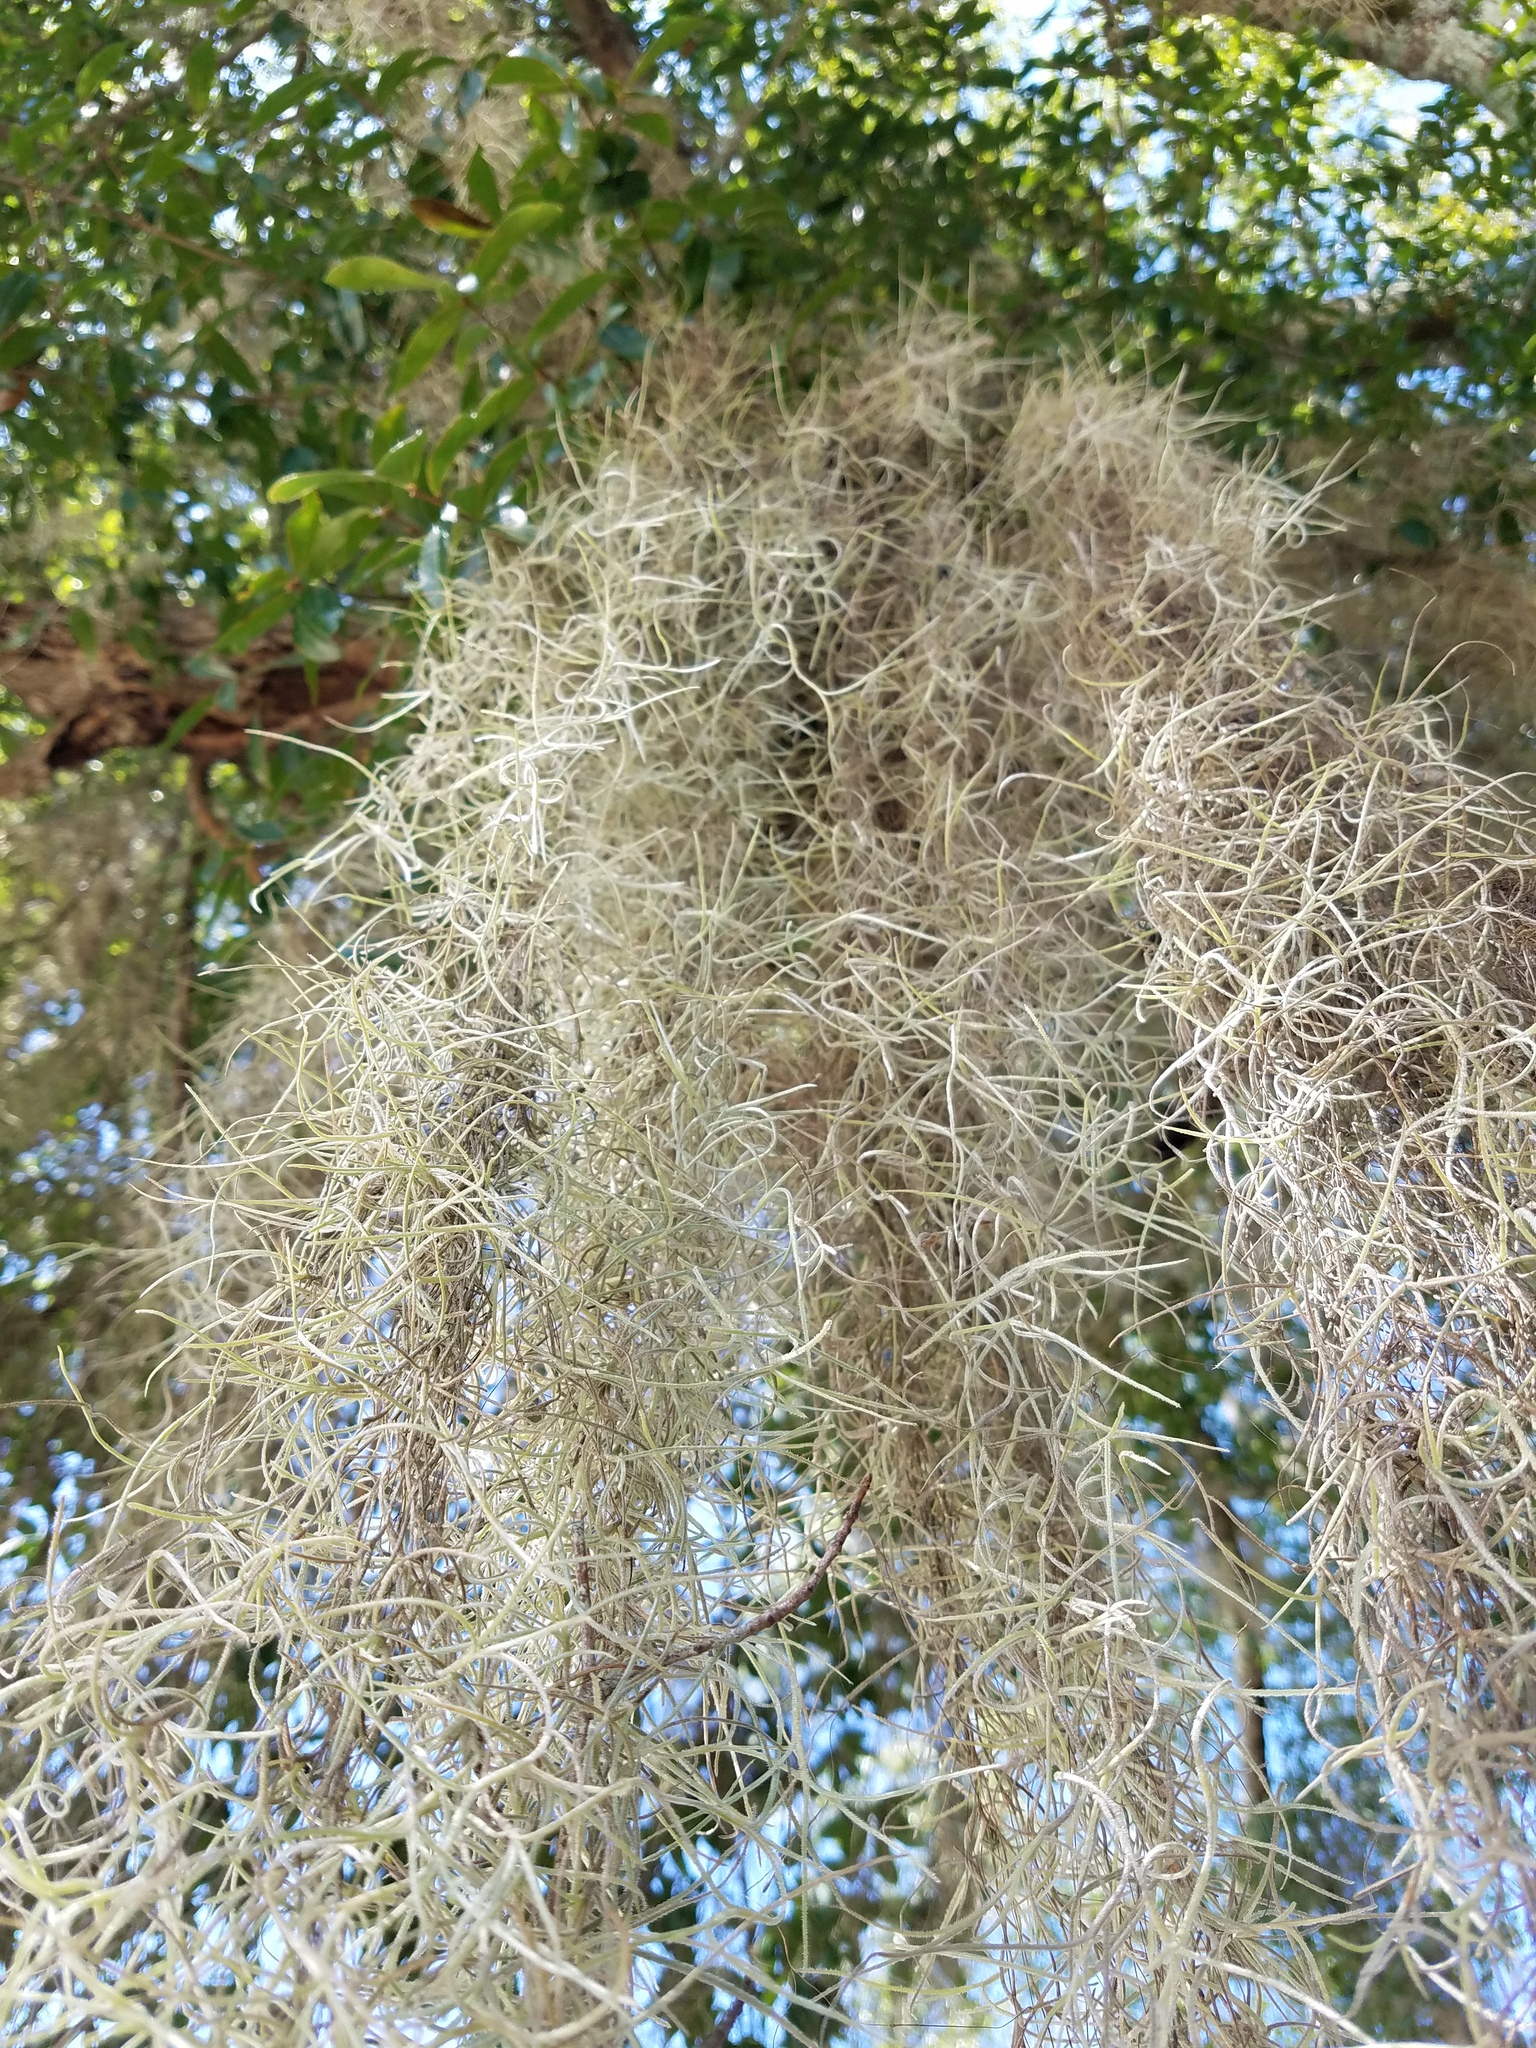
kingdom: Plantae
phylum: Tracheophyta
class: Liliopsida
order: Poales
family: Bromeliaceae
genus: Tillandsia
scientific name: Tillandsia usneoides
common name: Spanish moss
